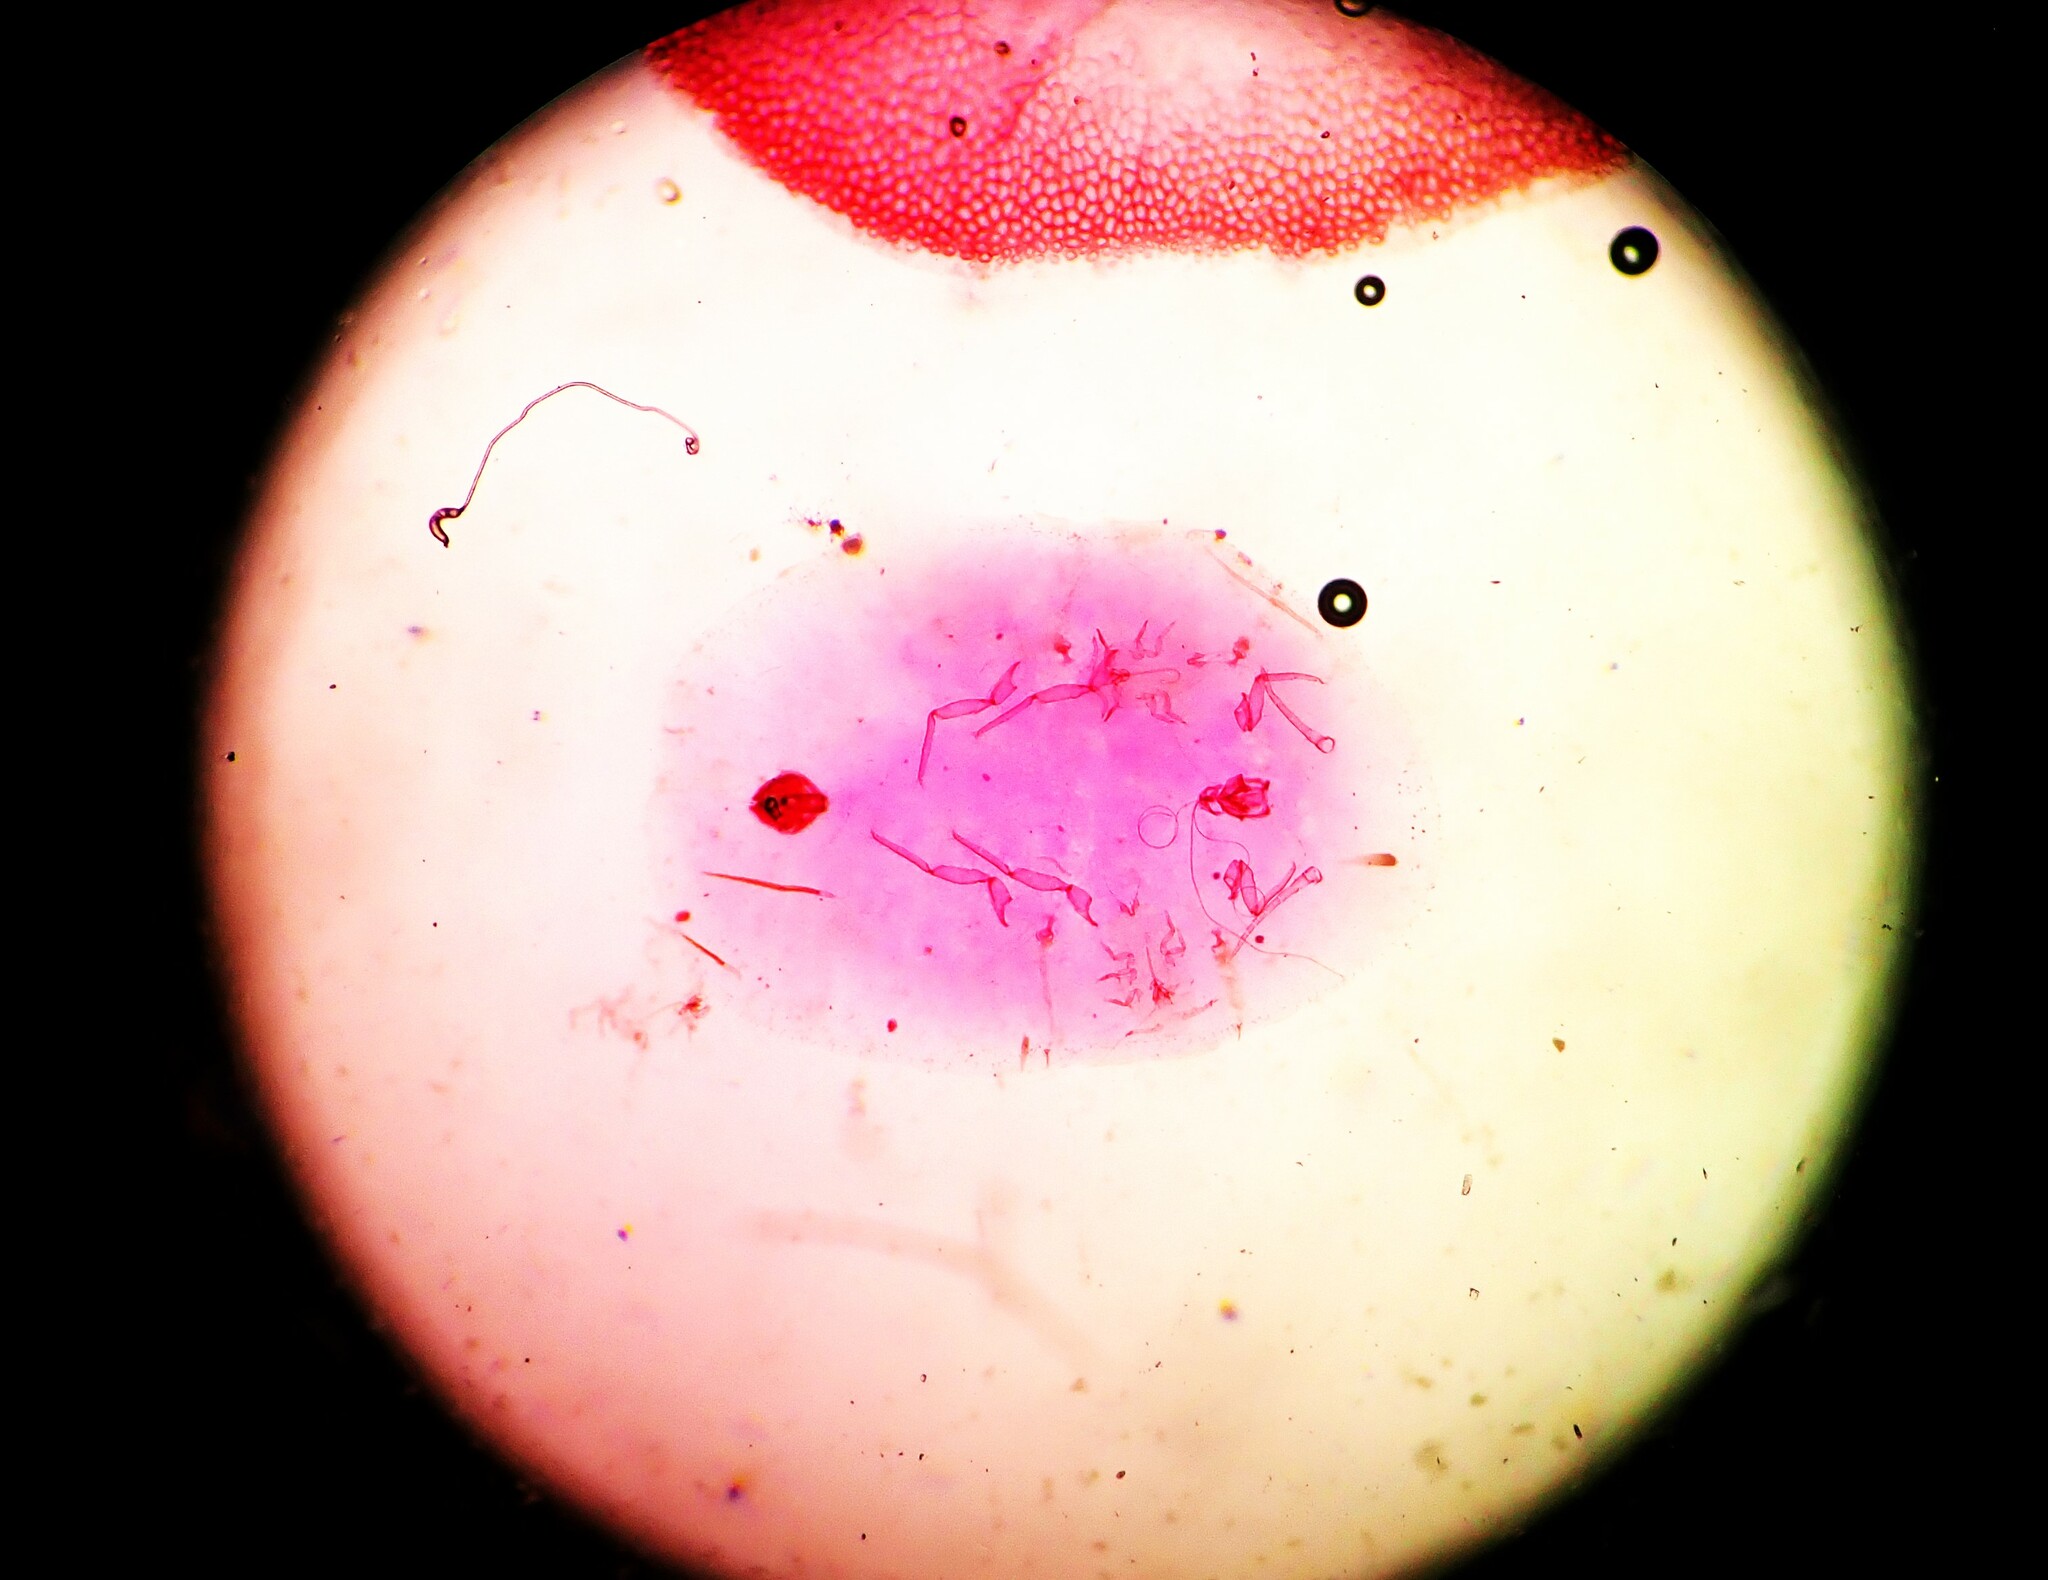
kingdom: Animalia
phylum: Arthropoda
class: Insecta
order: Hemiptera
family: Coccidae
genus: Parasaissetia
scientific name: Parasaissetia nigra
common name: Black scale
